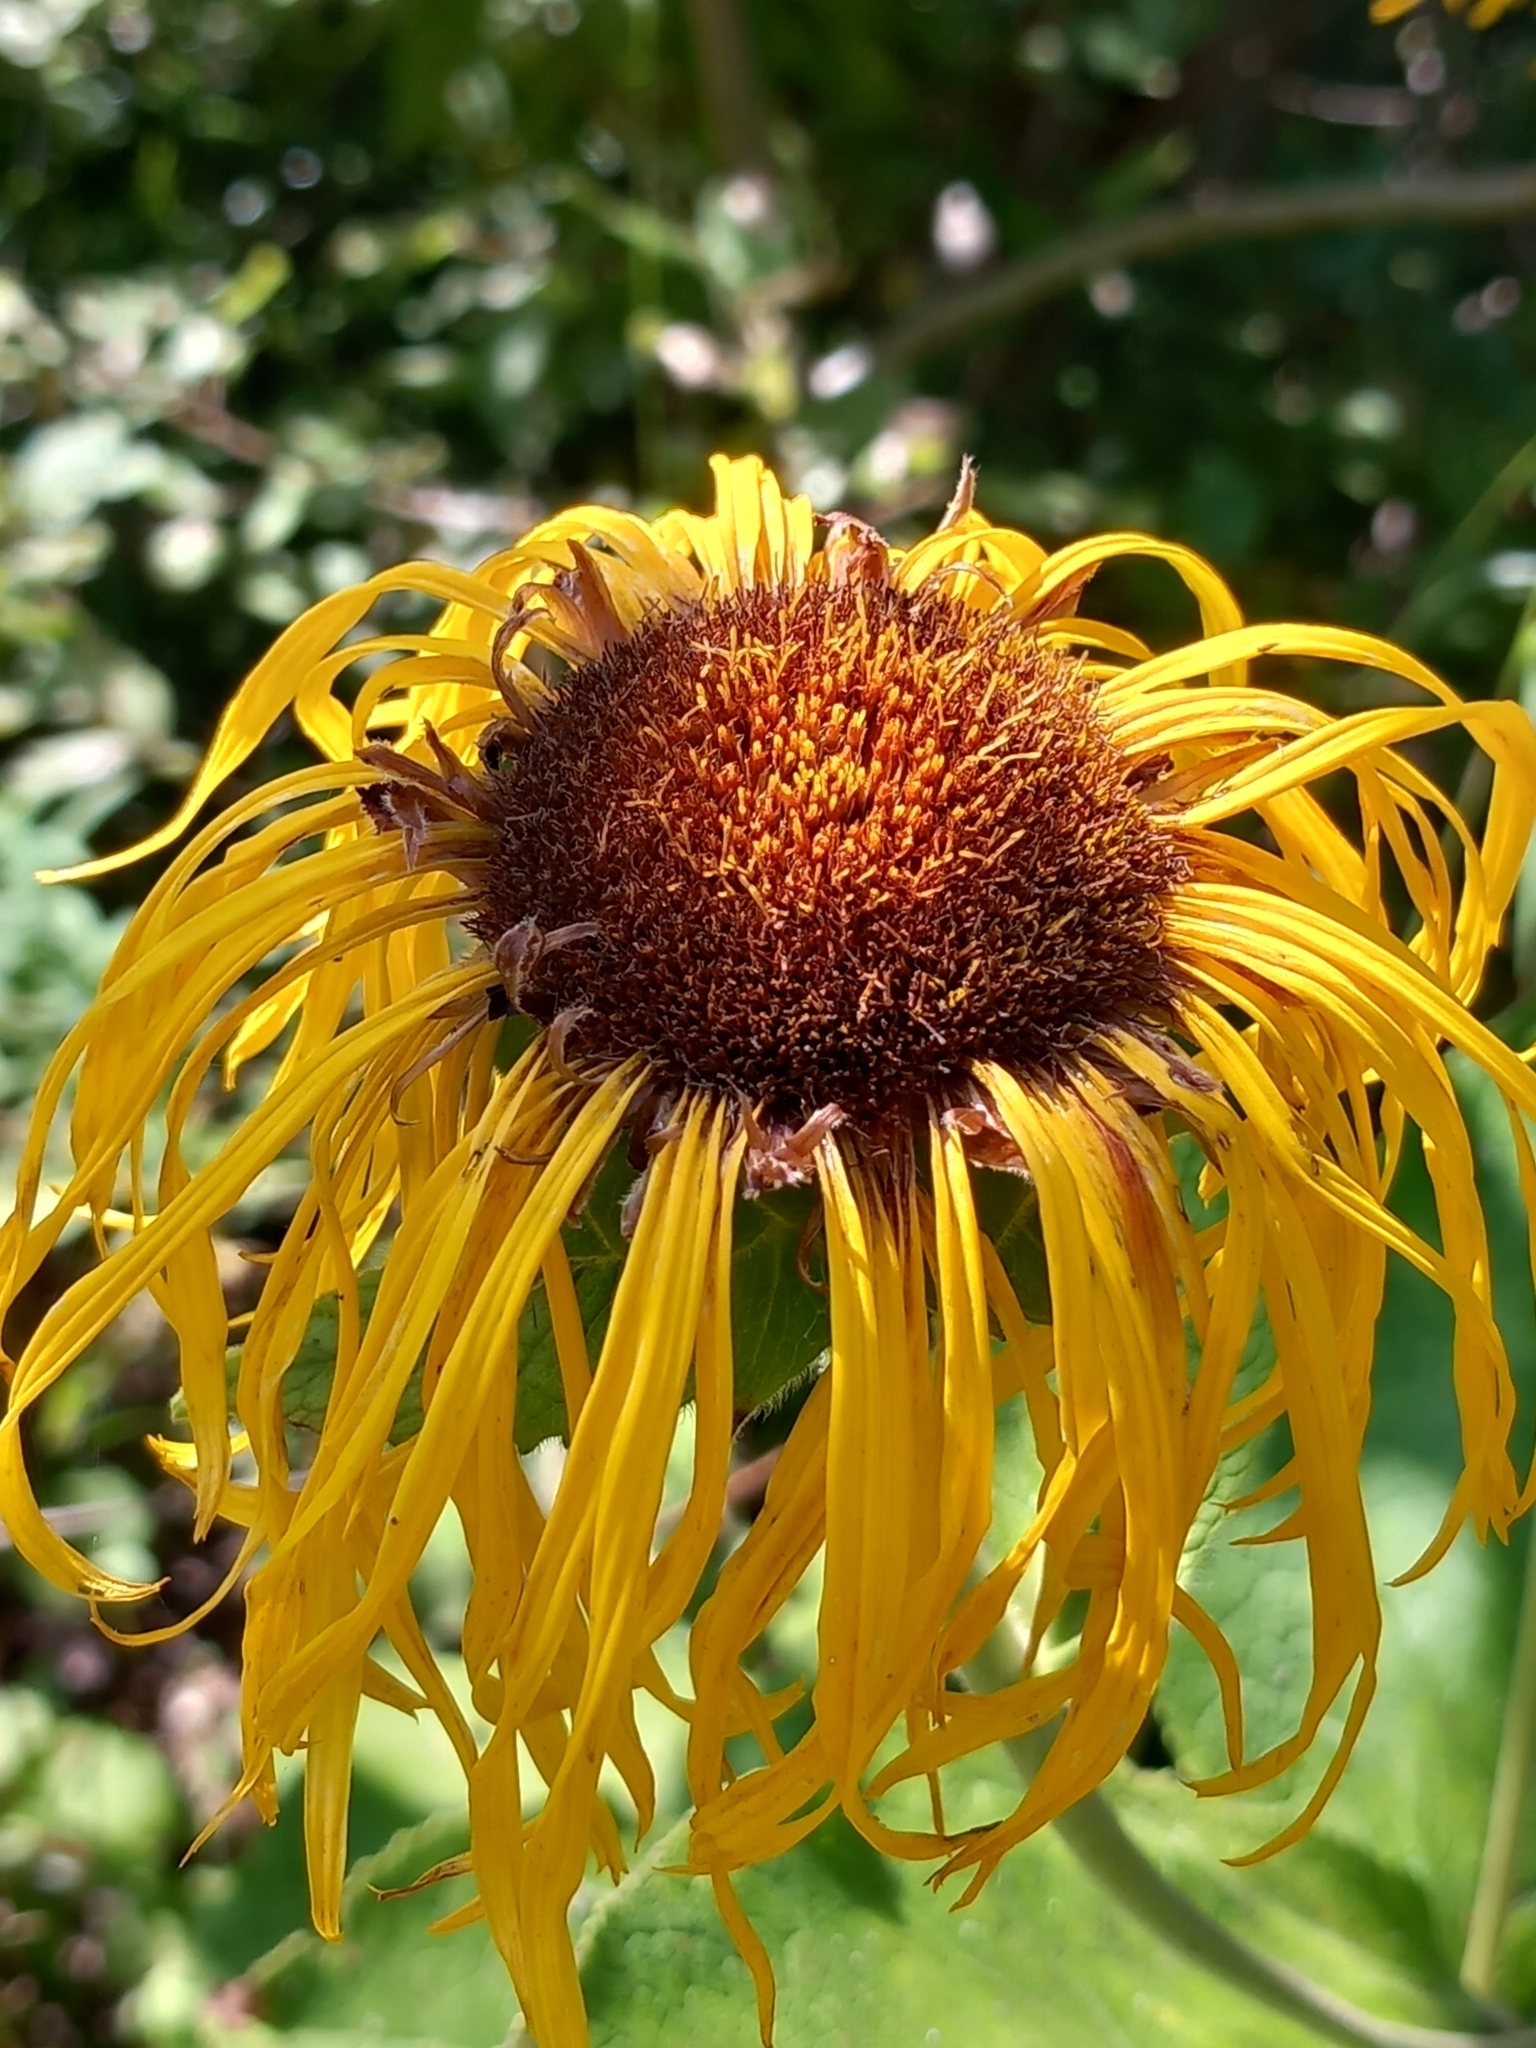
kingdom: Plantae
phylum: Tracheophyta
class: Magnoliopsida
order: Asterales
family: Asteraceae
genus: Inula
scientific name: Inula magnifica
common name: Giant fleabane
